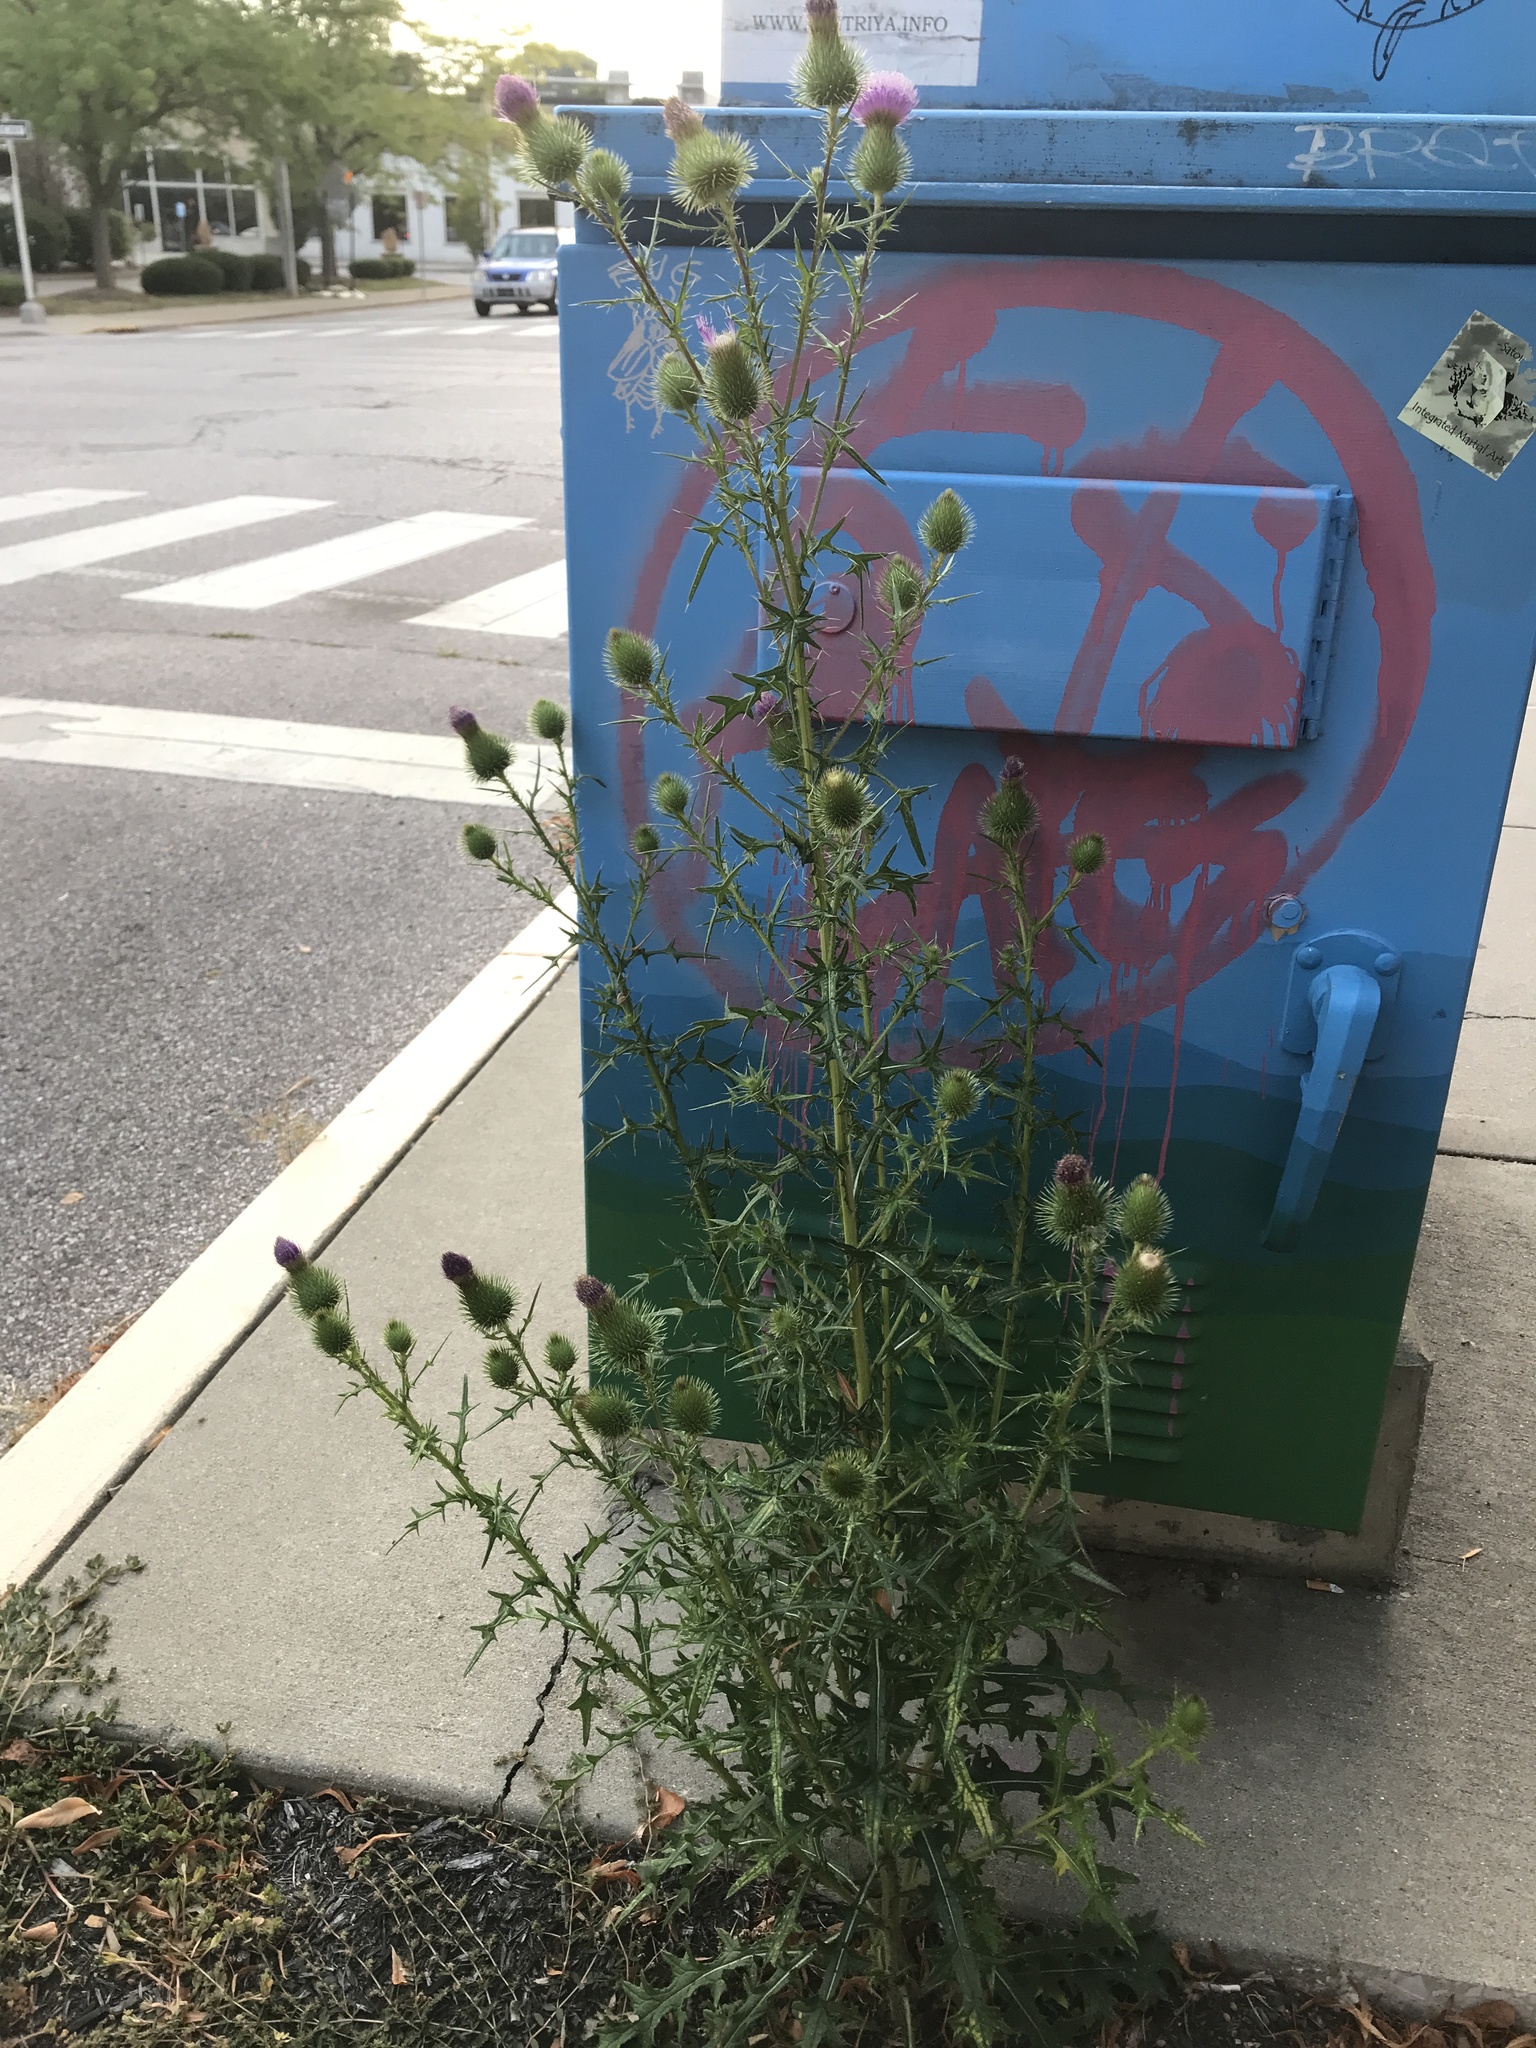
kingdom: Plantae
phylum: Tracheophyta
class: Magnoliopsida
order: Asterales
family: Asteraceae
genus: Cirsium
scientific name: Cirsium vulgare
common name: Bull thistle
